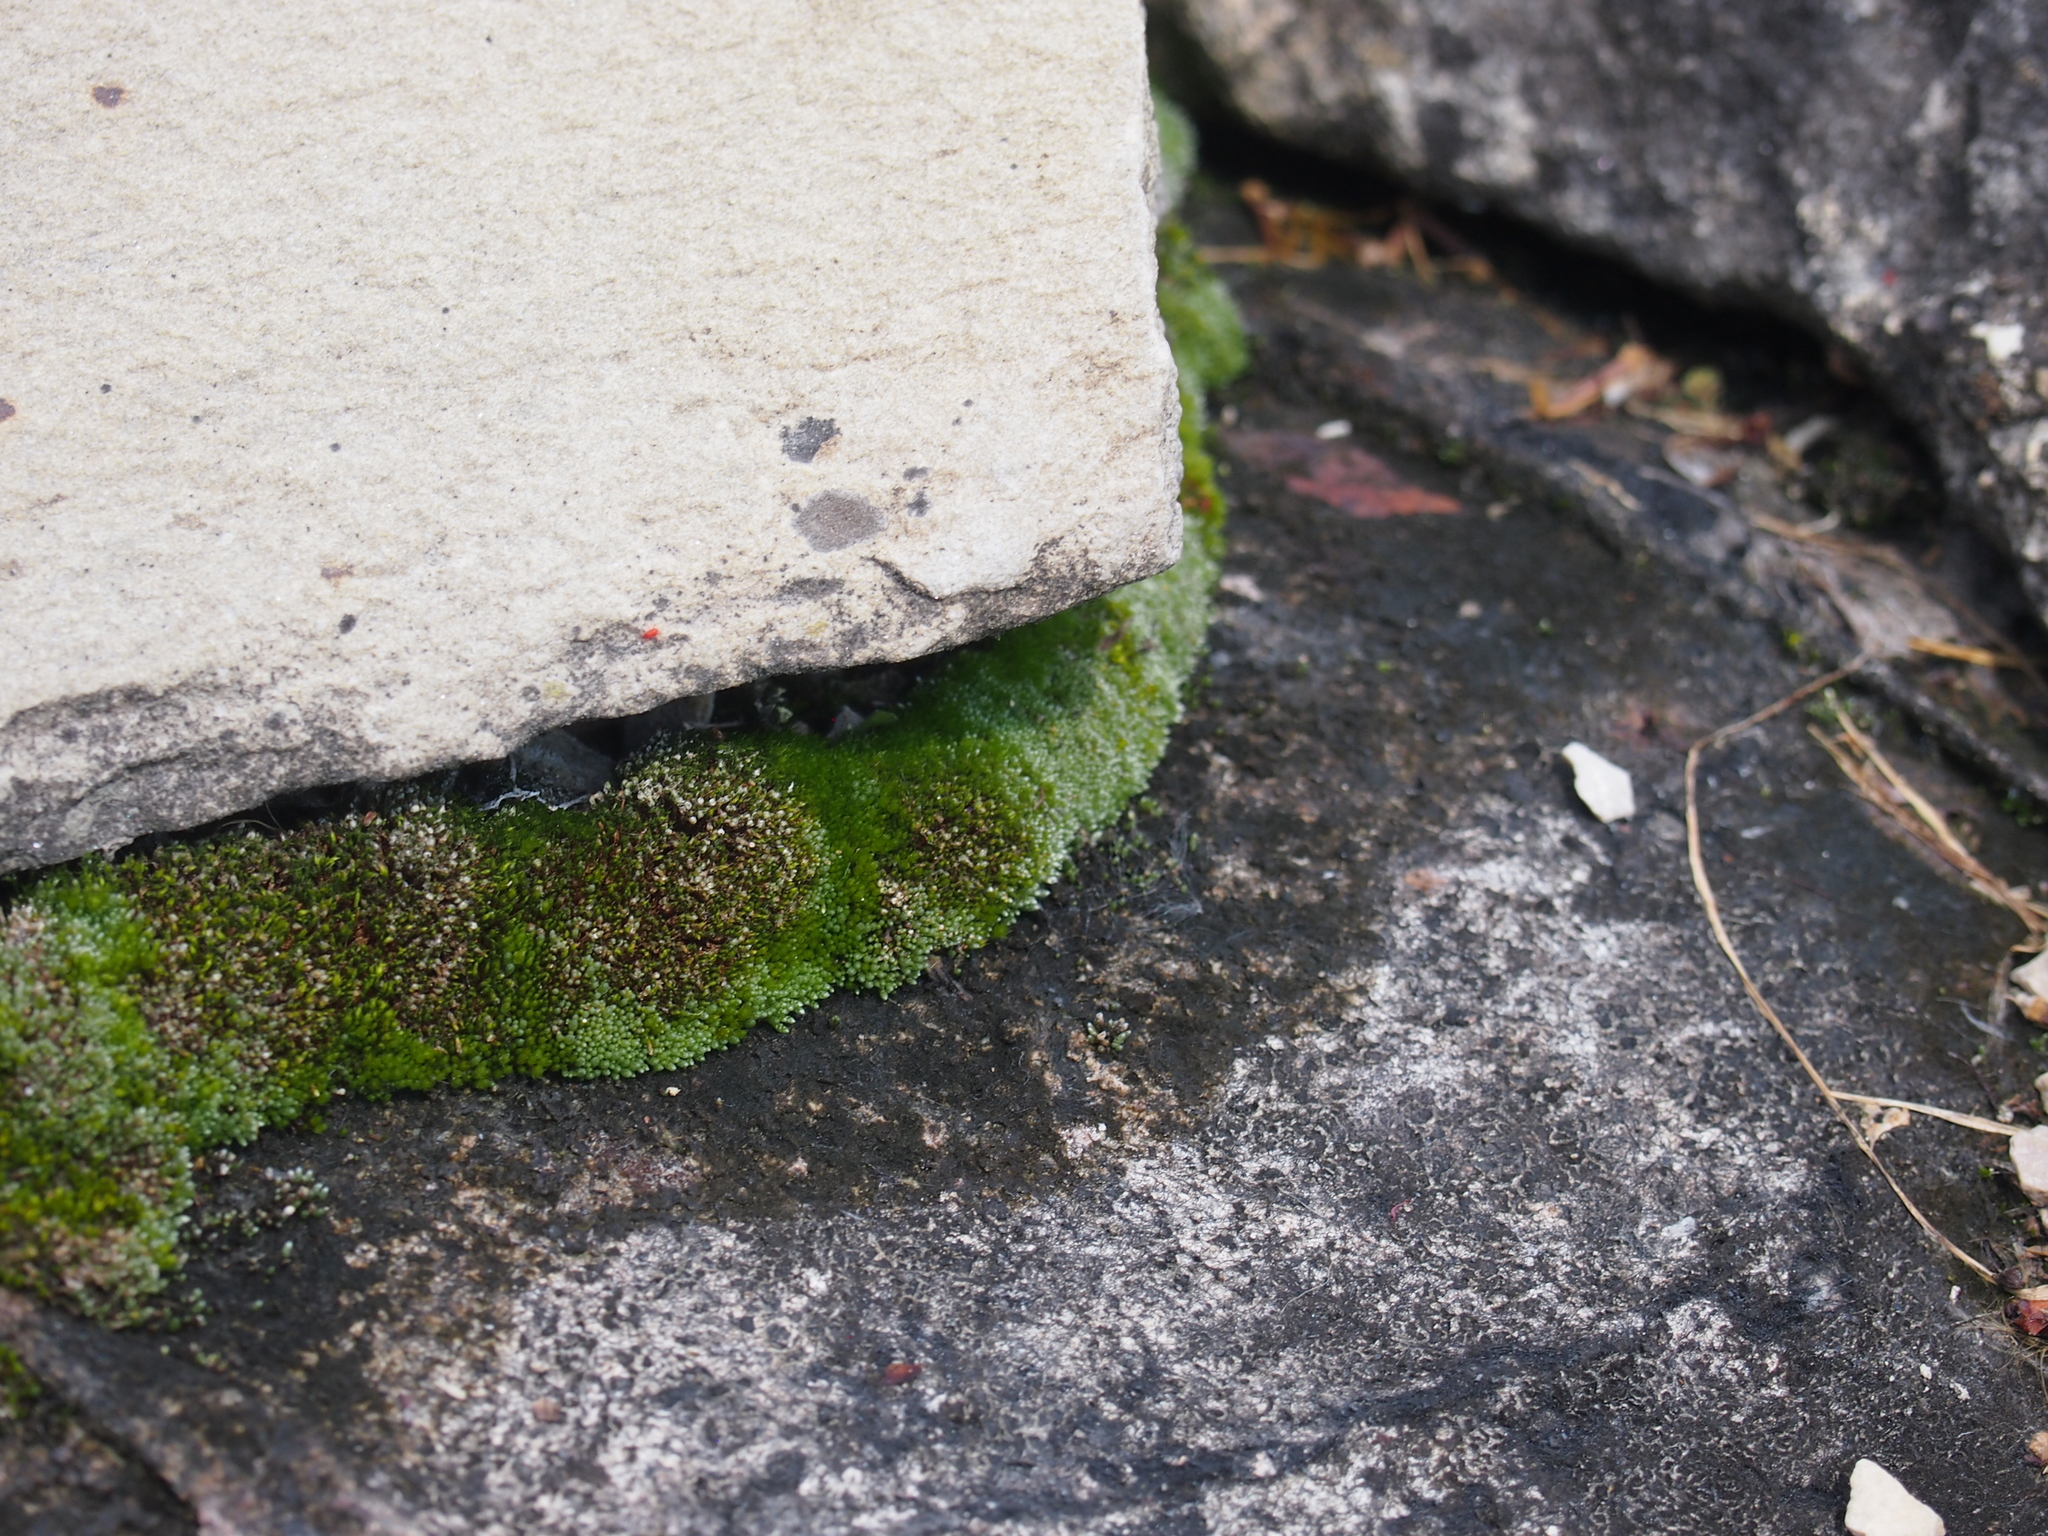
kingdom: Plantae
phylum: Bryophyta
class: Bryopsida
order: Bryales
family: Bryaceae
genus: Bryum
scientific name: Bryum argenteum
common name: Silver-moss
